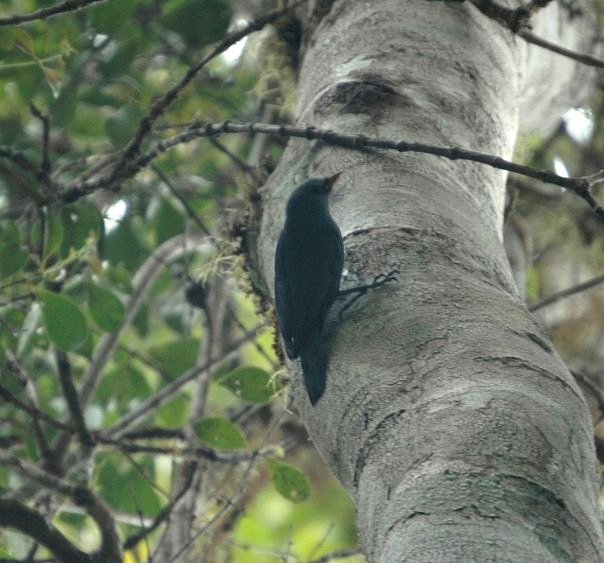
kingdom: Animalia
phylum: Chordata
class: Aves
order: Passeriformes
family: Vangidae
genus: Hypositta
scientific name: Hypositta corallirostris
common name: Nuthatch vanga
